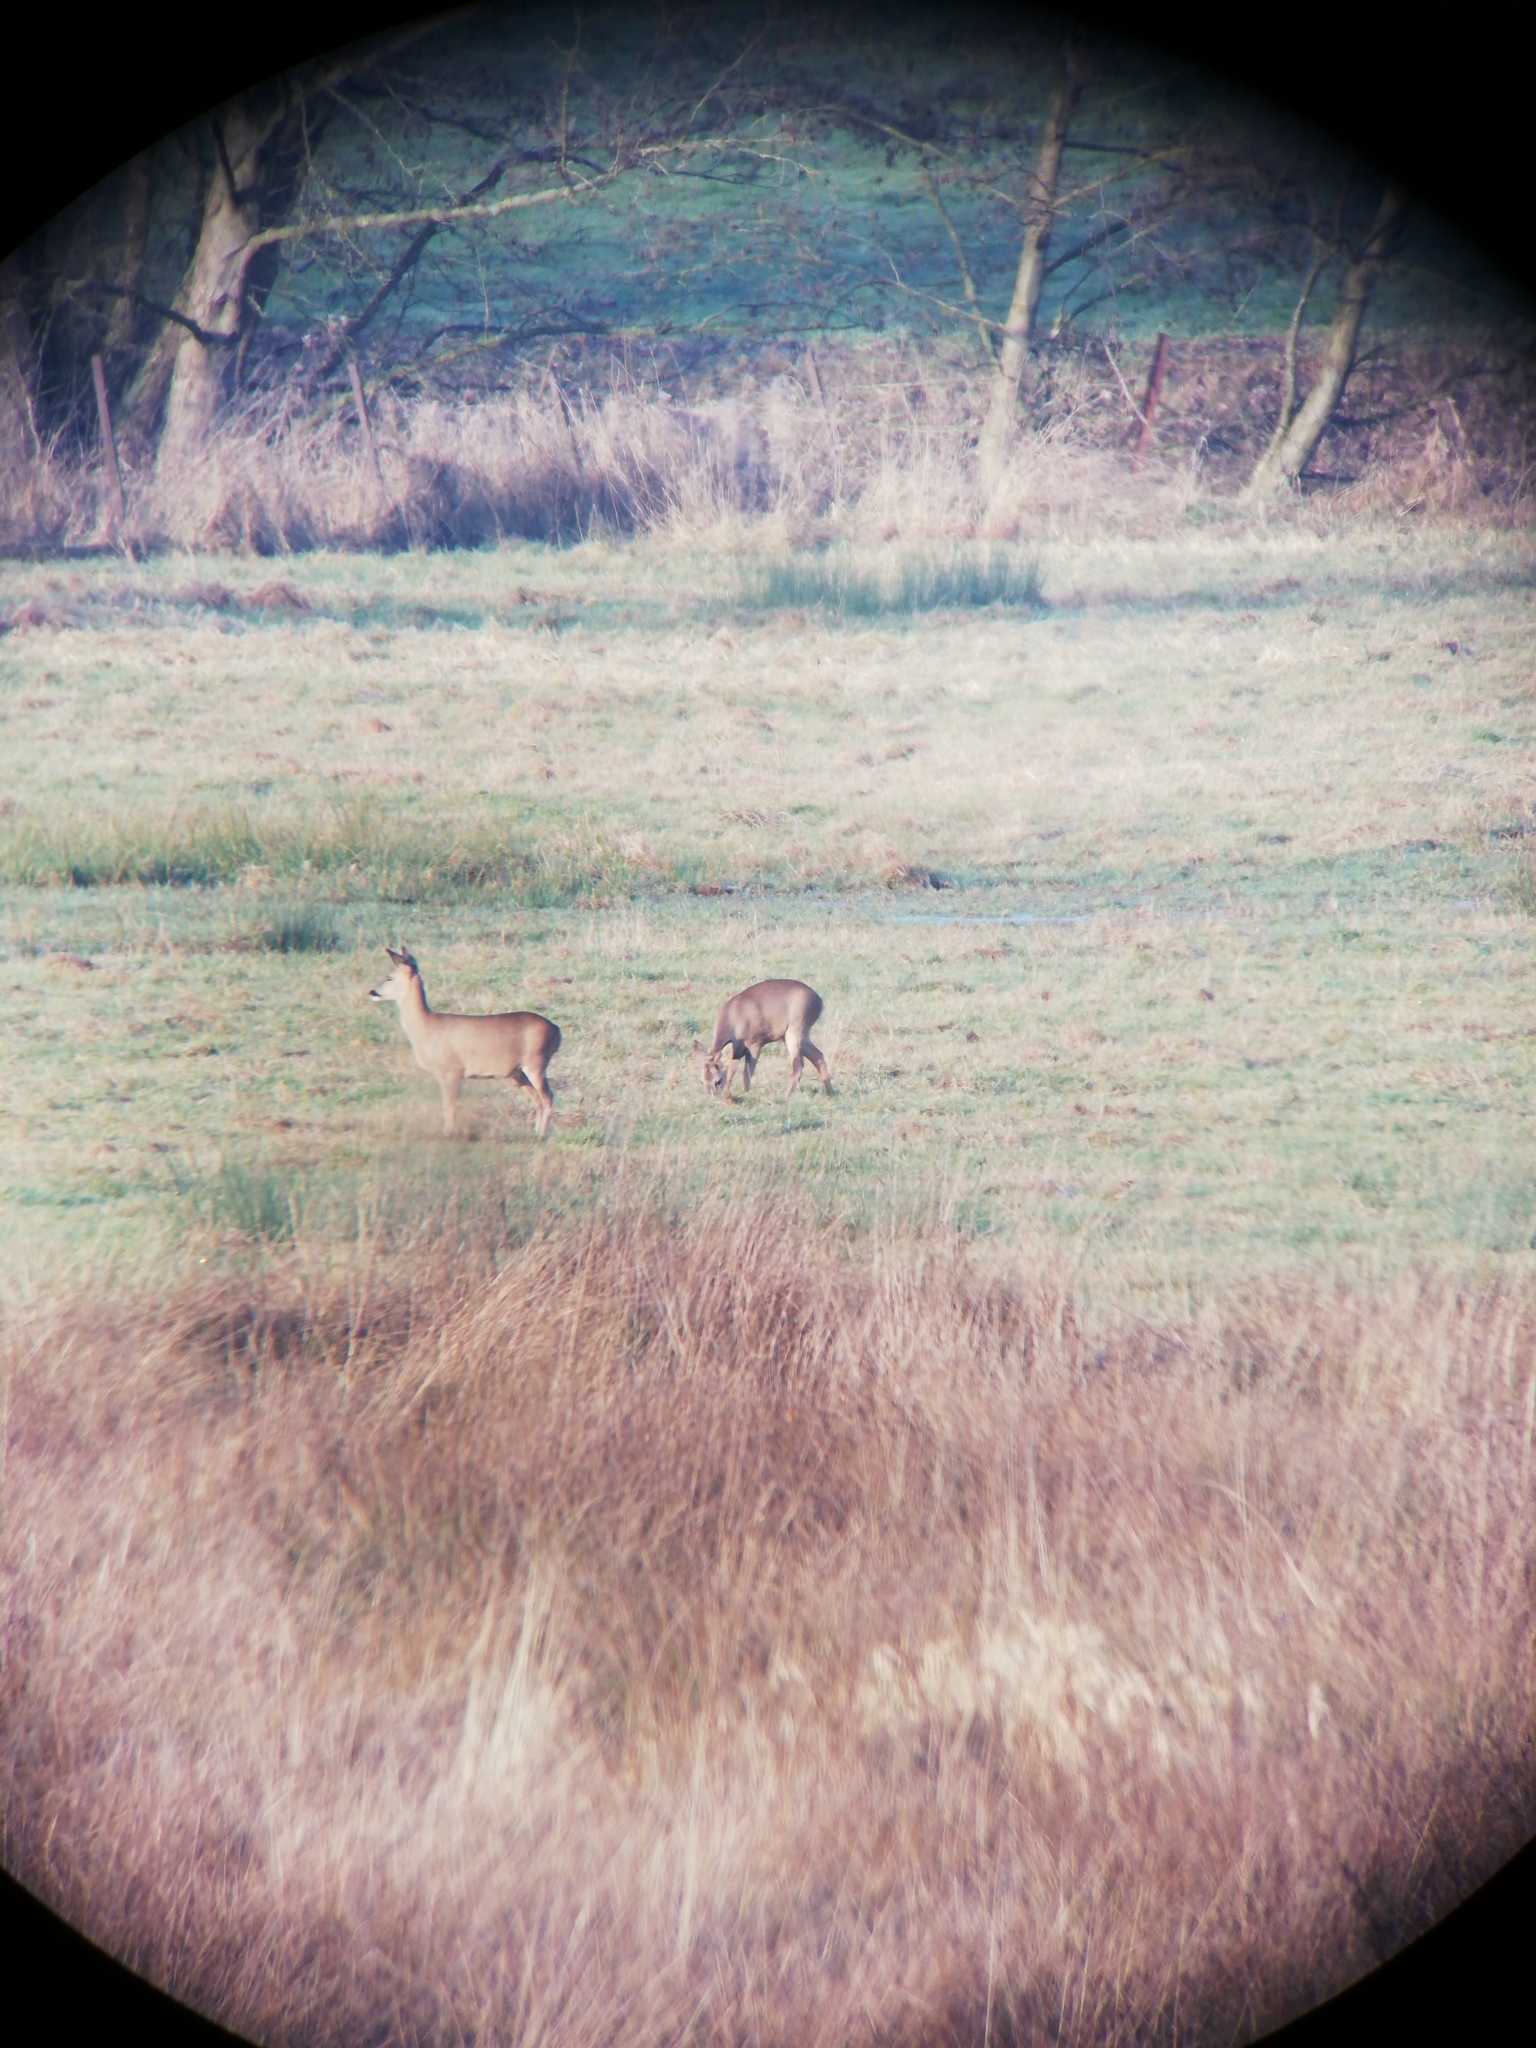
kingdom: Animalia
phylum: Chordata
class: Mammalia
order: Artiodactyla
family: Cervidae
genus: Capreolus
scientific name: Capreolus capreolus
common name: Western roe deer
